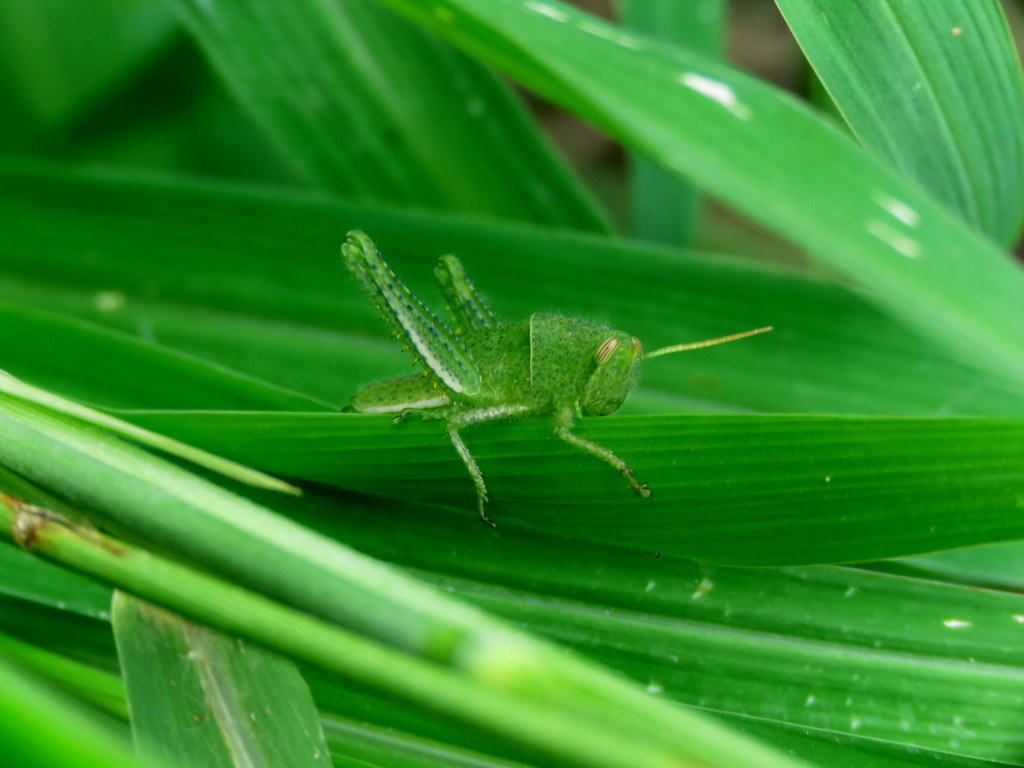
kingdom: Animalia
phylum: Arthropoda
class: Insecta
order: Orthoptera
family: Acrididae
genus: Schistocerca
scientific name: Schistocerca flavofasciata
